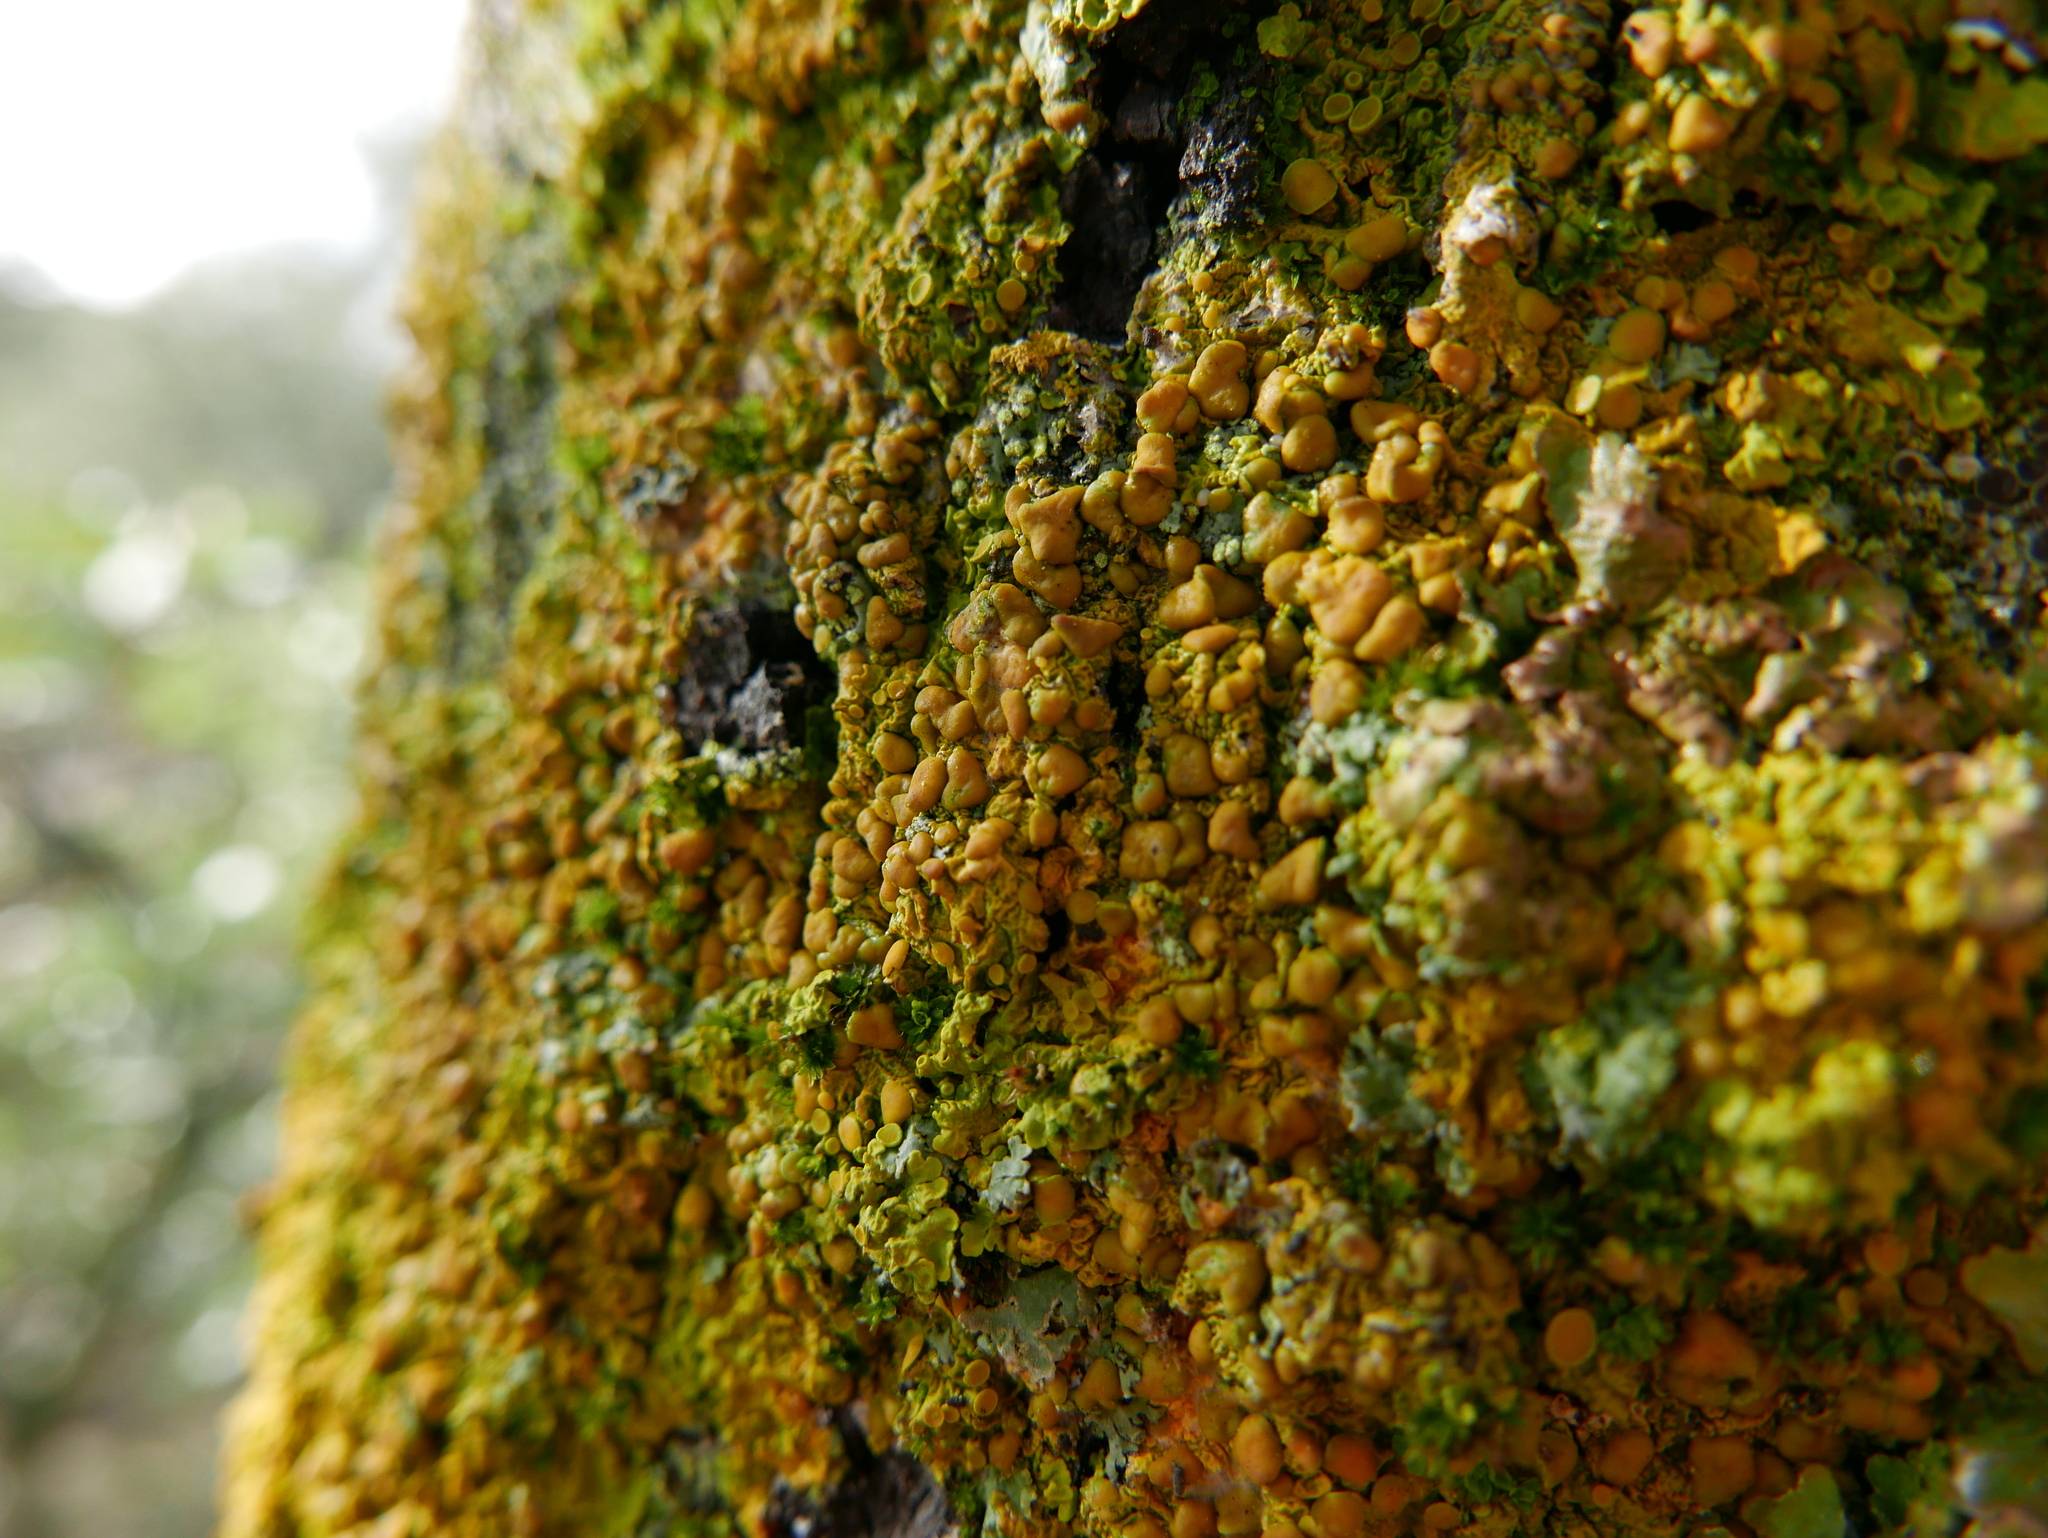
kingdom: Fungi
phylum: Ascomycota
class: Lecanoromycetes
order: Teloschistales
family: Teloschistaceae
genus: Xanthoria
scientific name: Xanthoria parietina
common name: Common orange lichen
